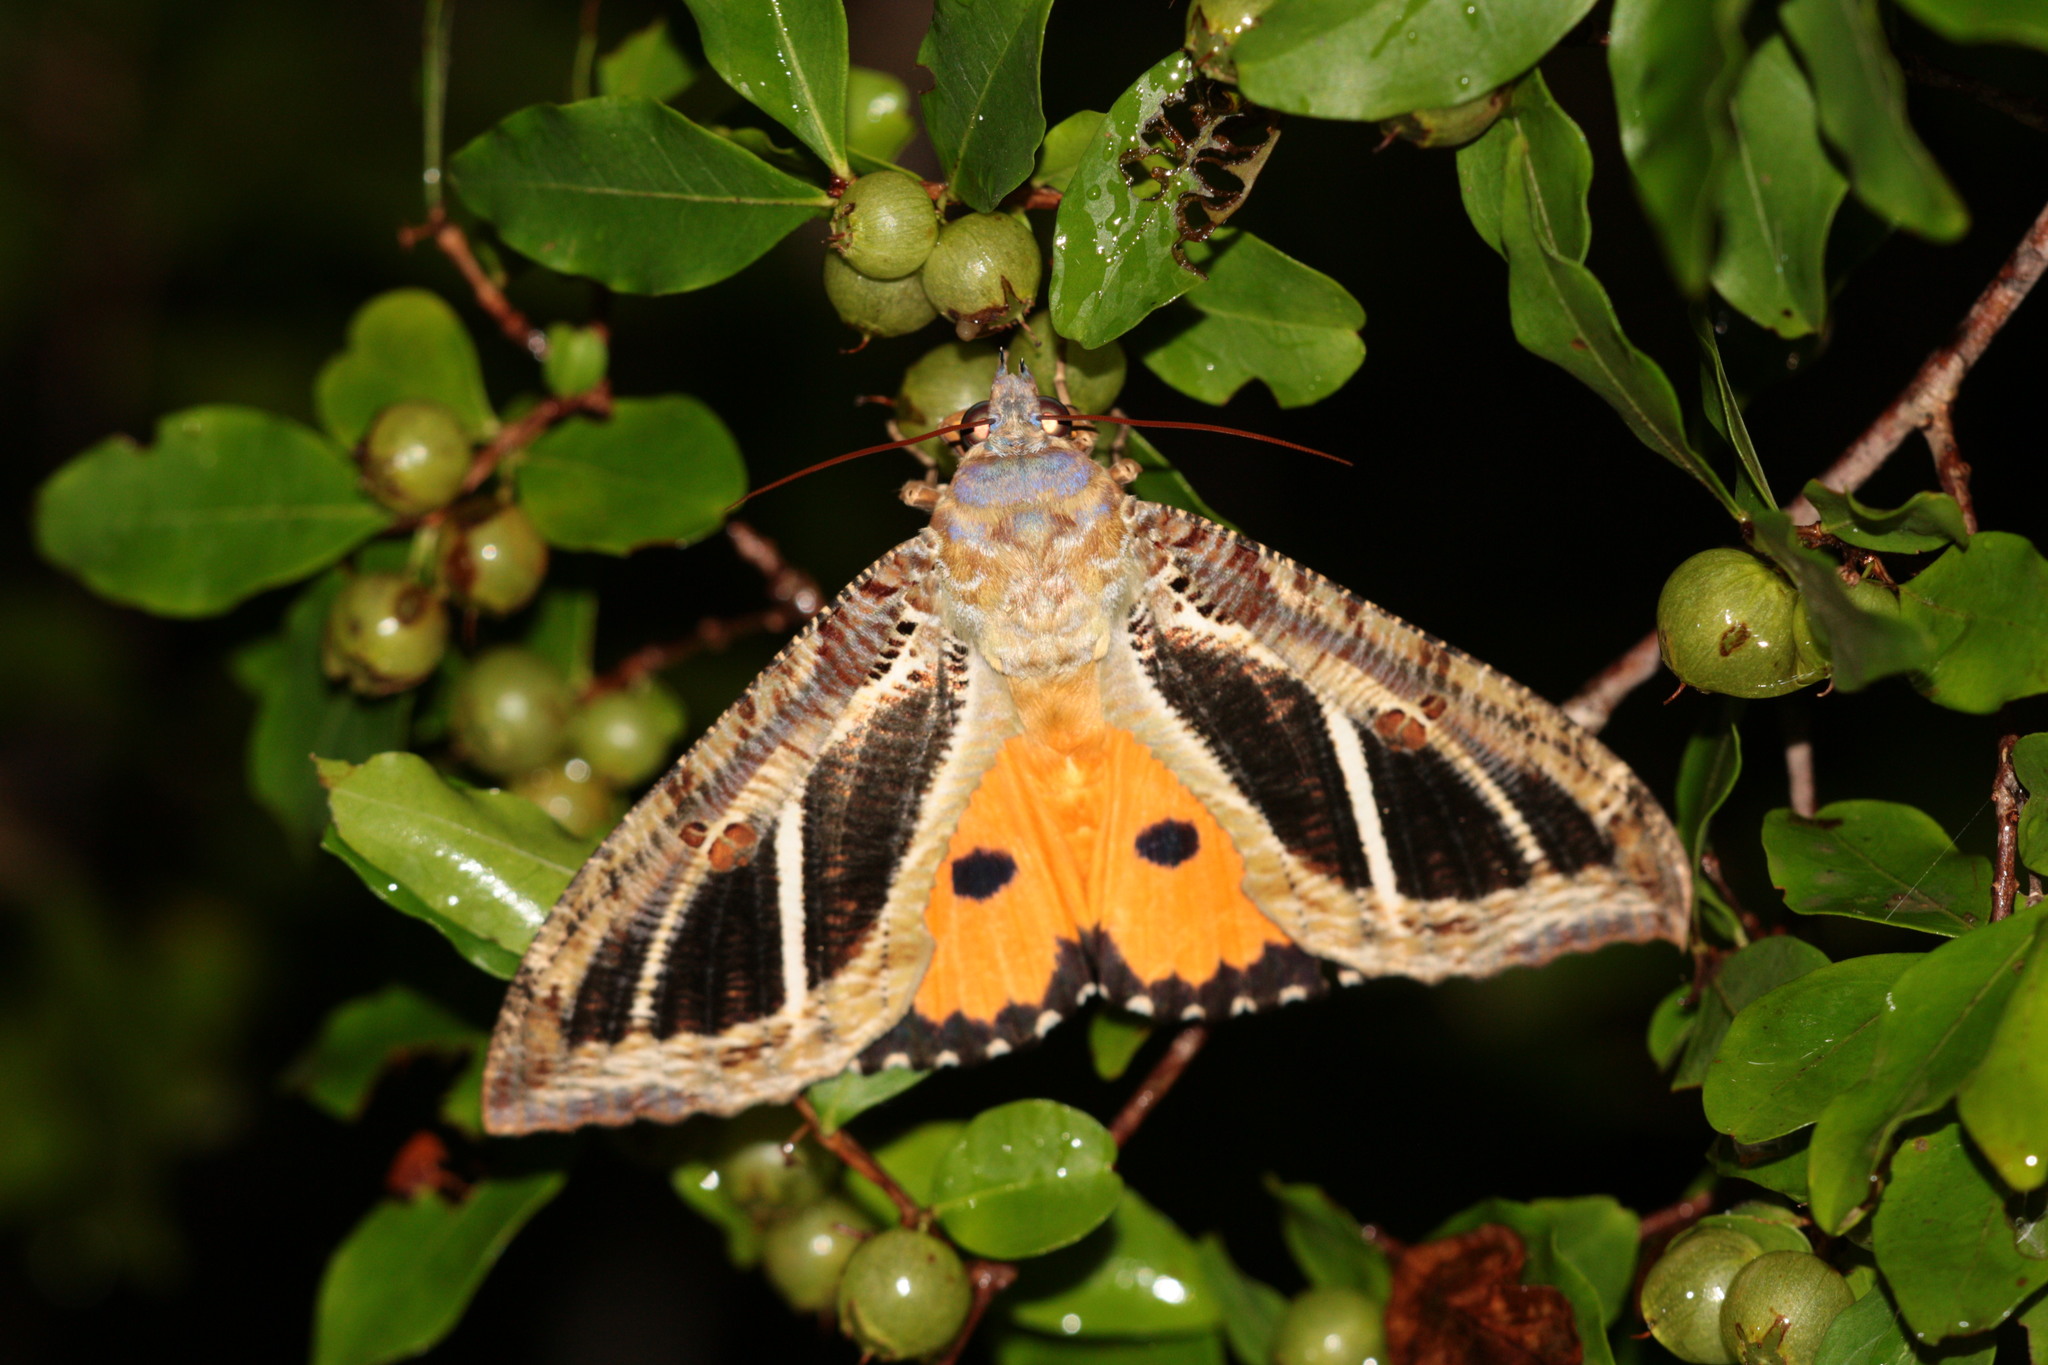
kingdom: Animalia
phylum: Arthropoda
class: Insecta
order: Lepidoptera
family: Erebidae
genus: Eudocima
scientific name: Eudocima materna
